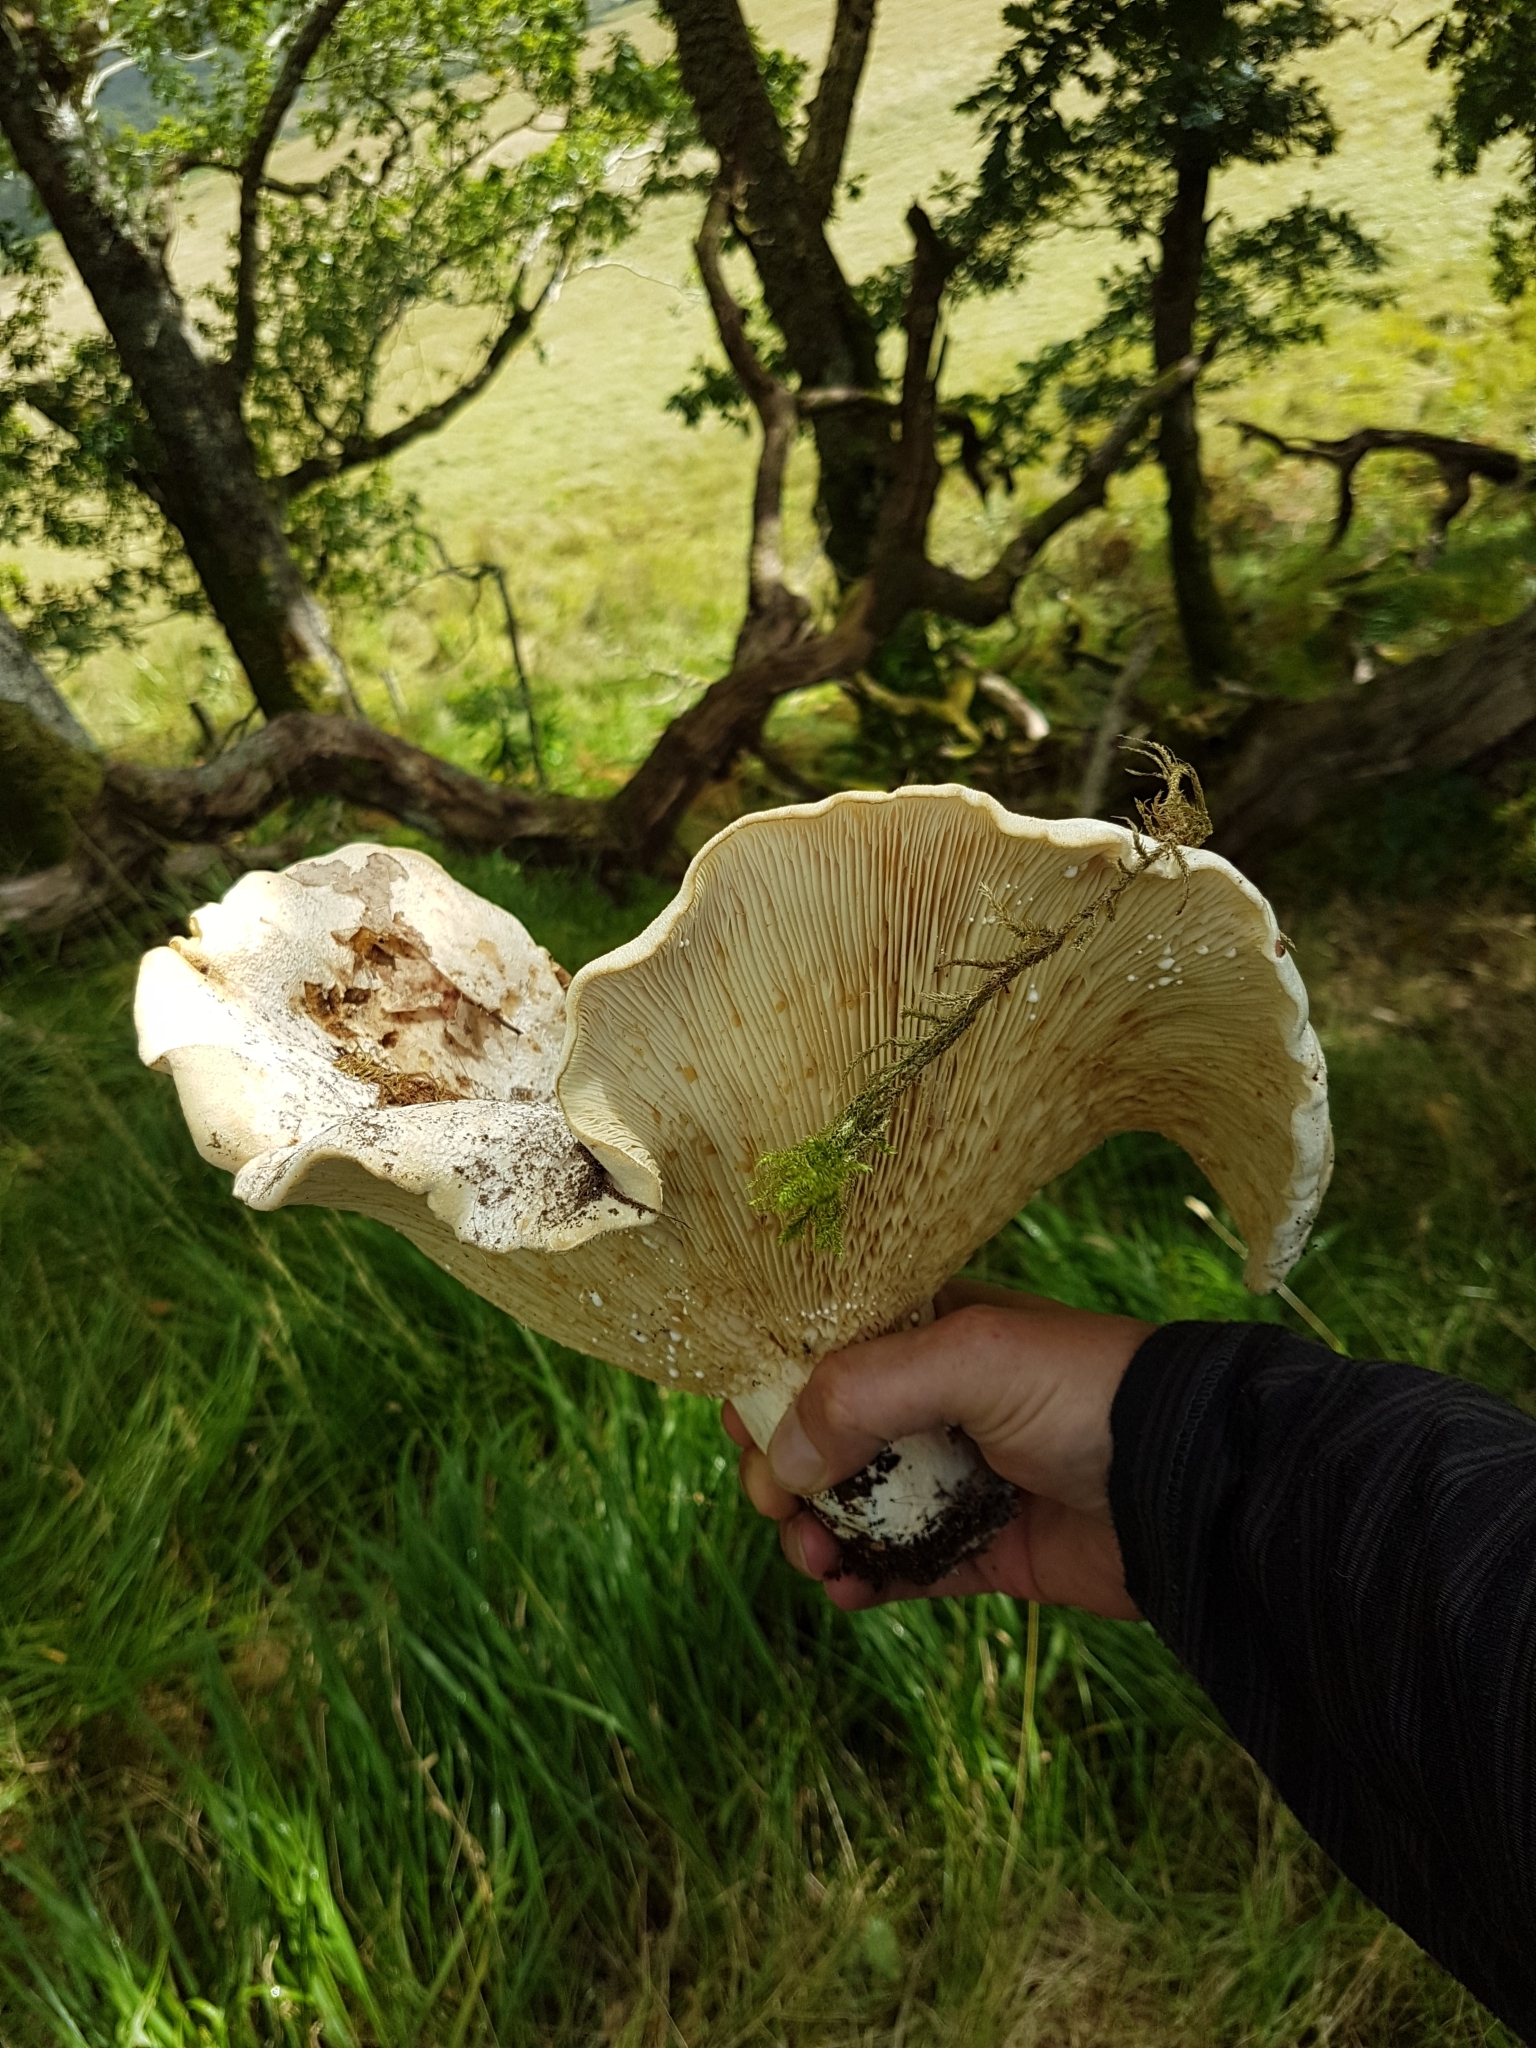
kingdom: Fungi
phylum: Basidiomycota
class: Agaricomycetes
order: Russulales
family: Russulaceae
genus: Lactifluus
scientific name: Lactifluus vellereus
